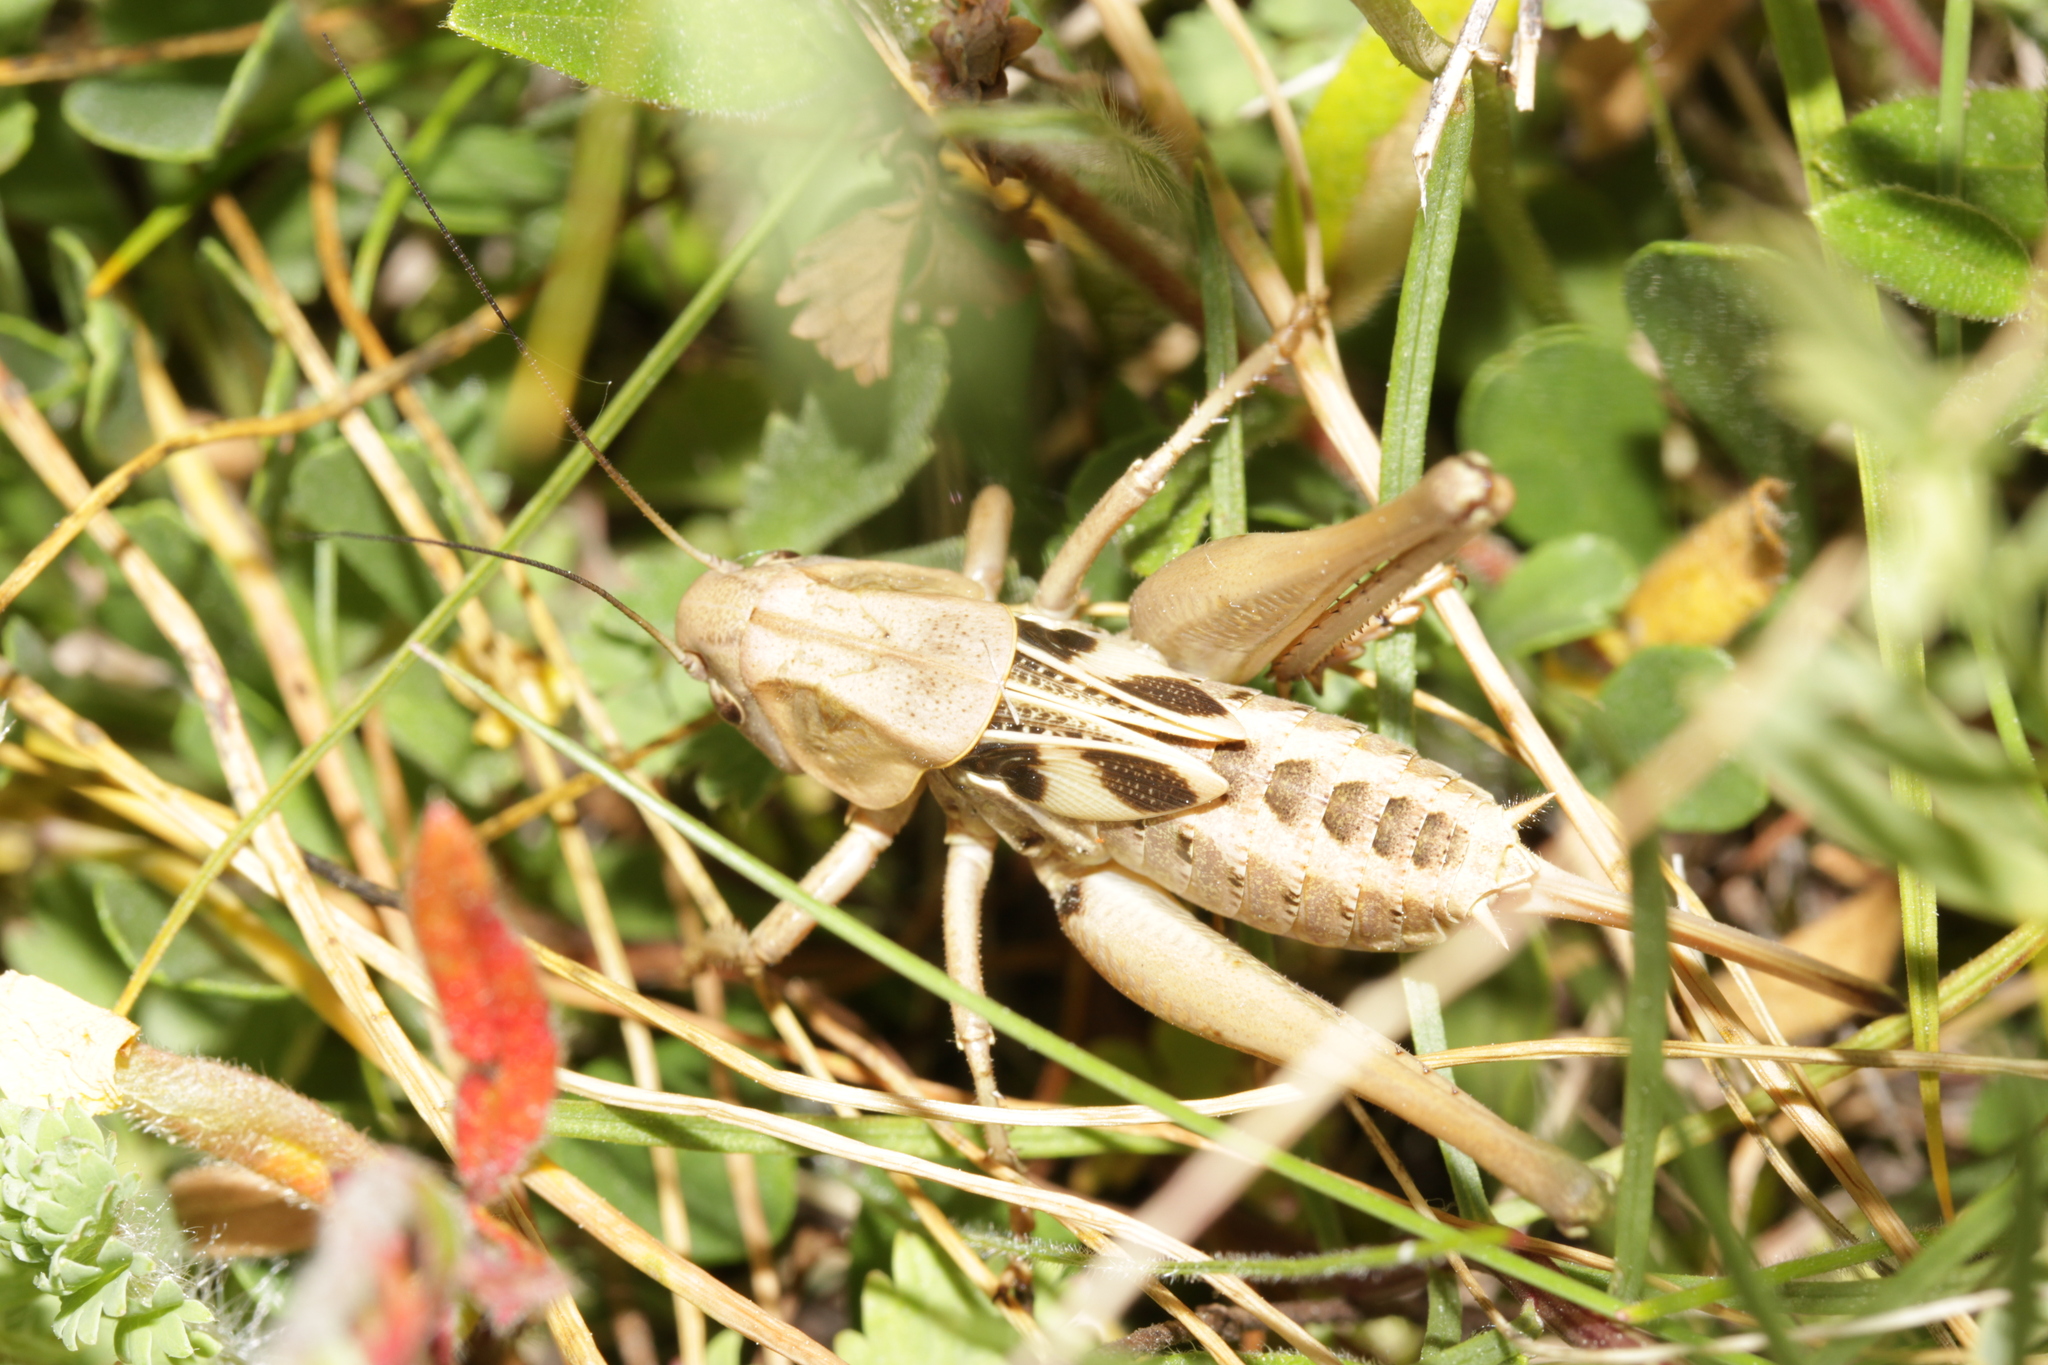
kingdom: Animalia
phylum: Arthropoda
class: Insecta
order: Orthoptera
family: Tettigoniidae
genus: Decticus
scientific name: Decticus verrucivorus
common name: Wart-biter
